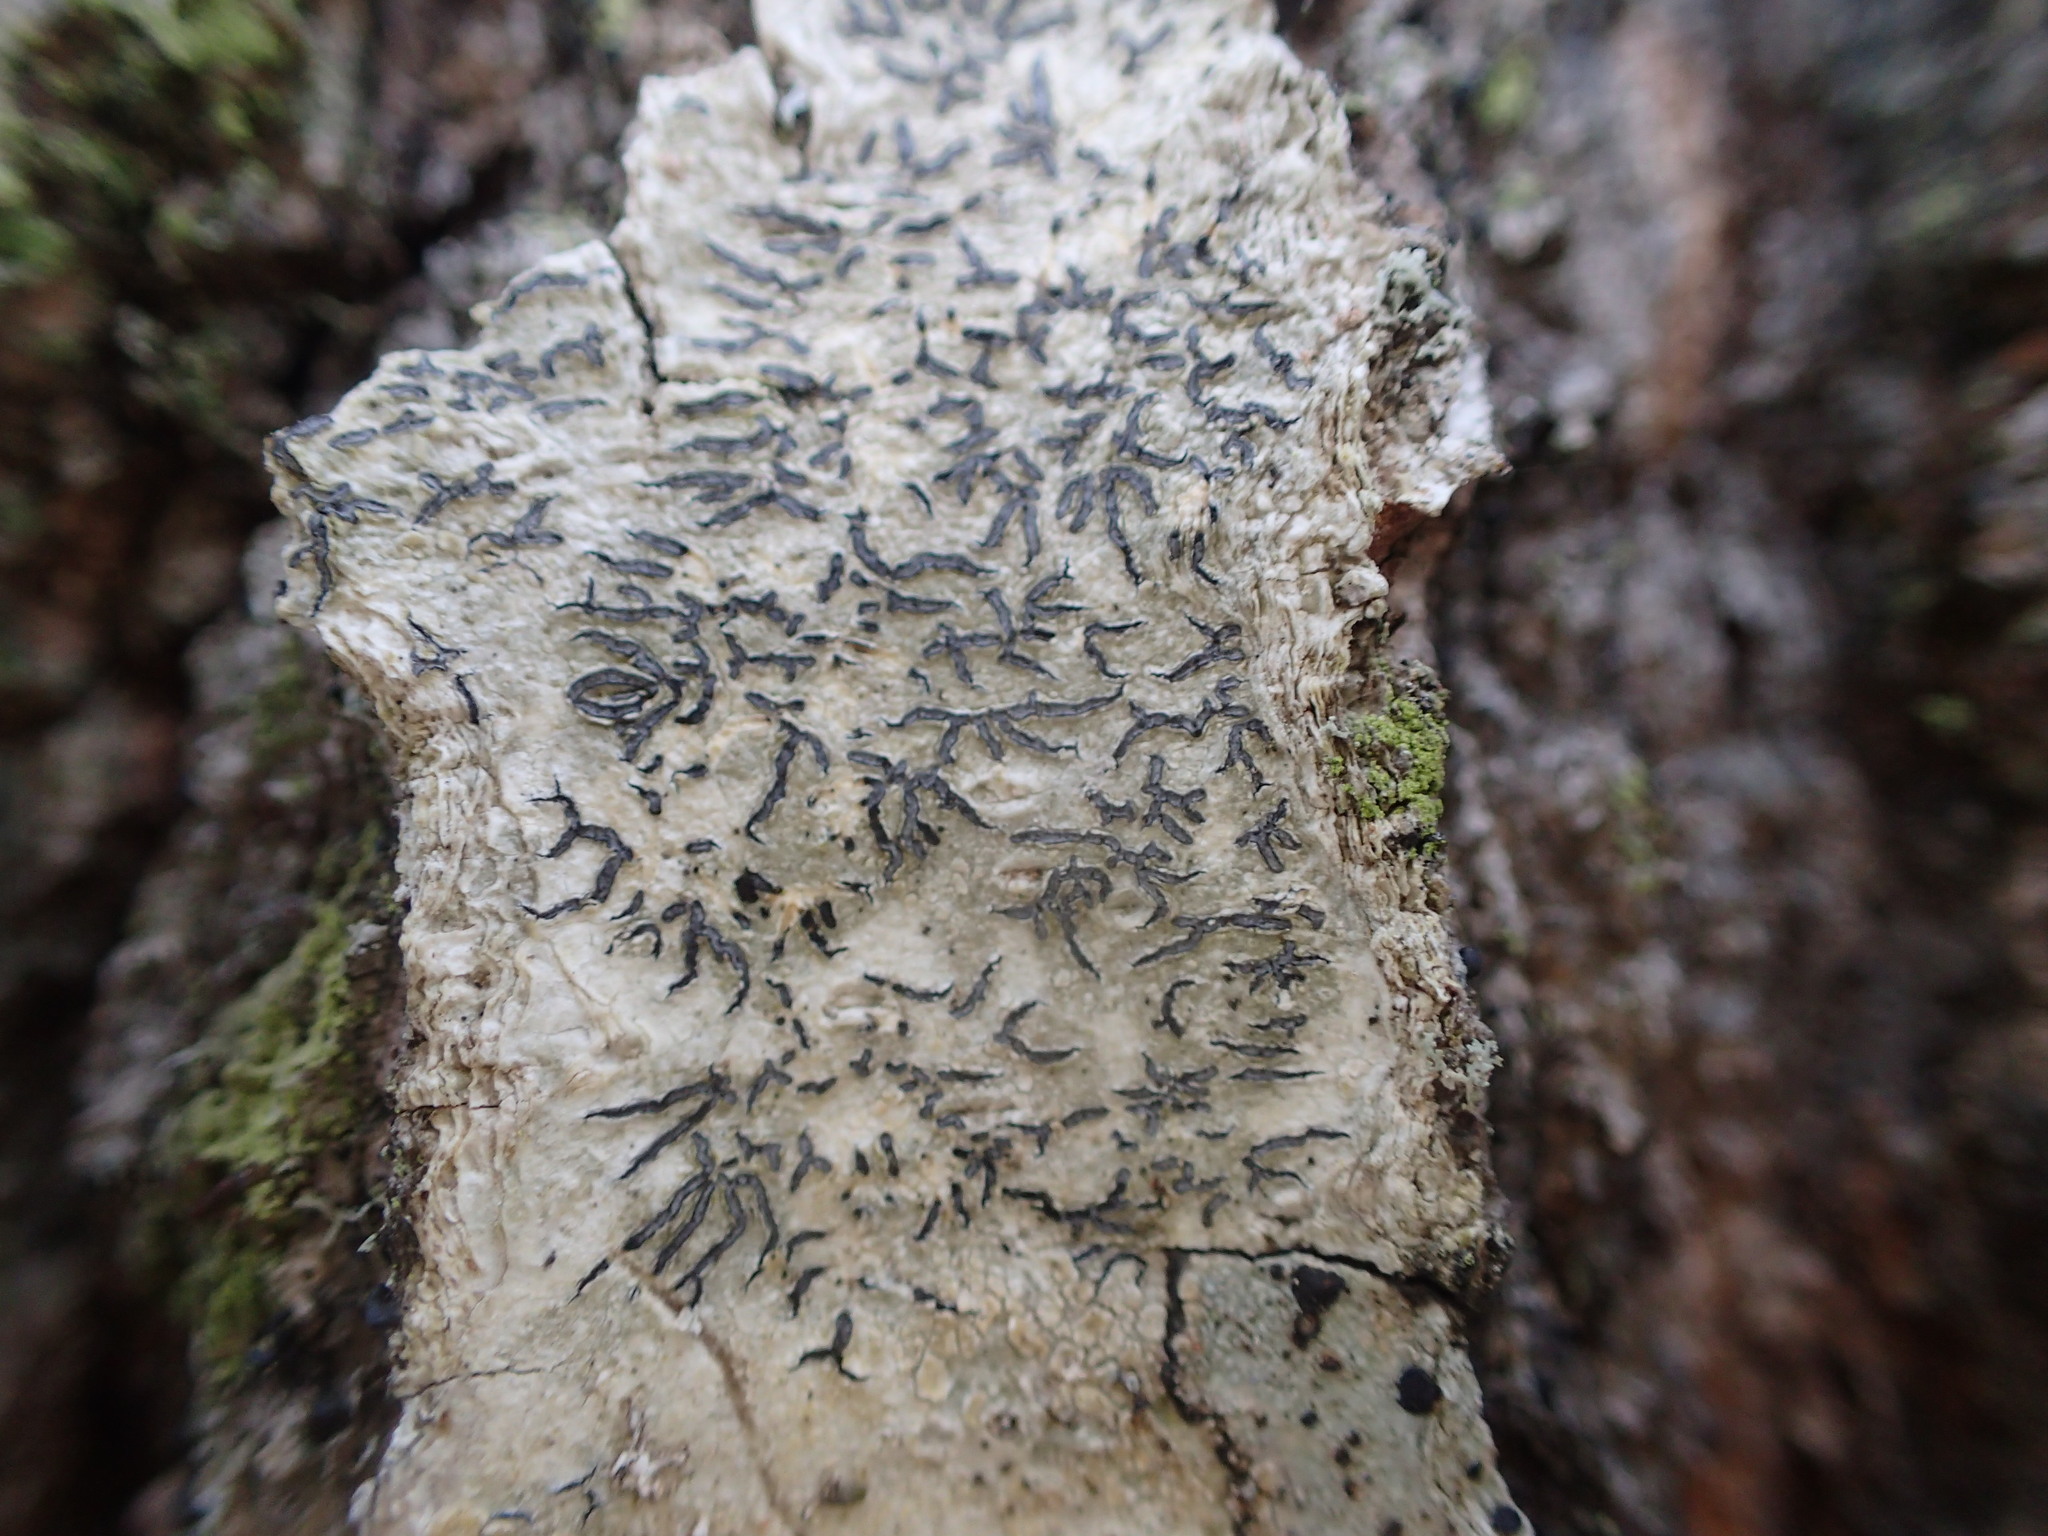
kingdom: Fungi
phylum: Ascomycota
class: Lecanoromycetes
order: Ostropales
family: Graphidaceae
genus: Graphis
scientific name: Graphis scripta
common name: Script lichen
